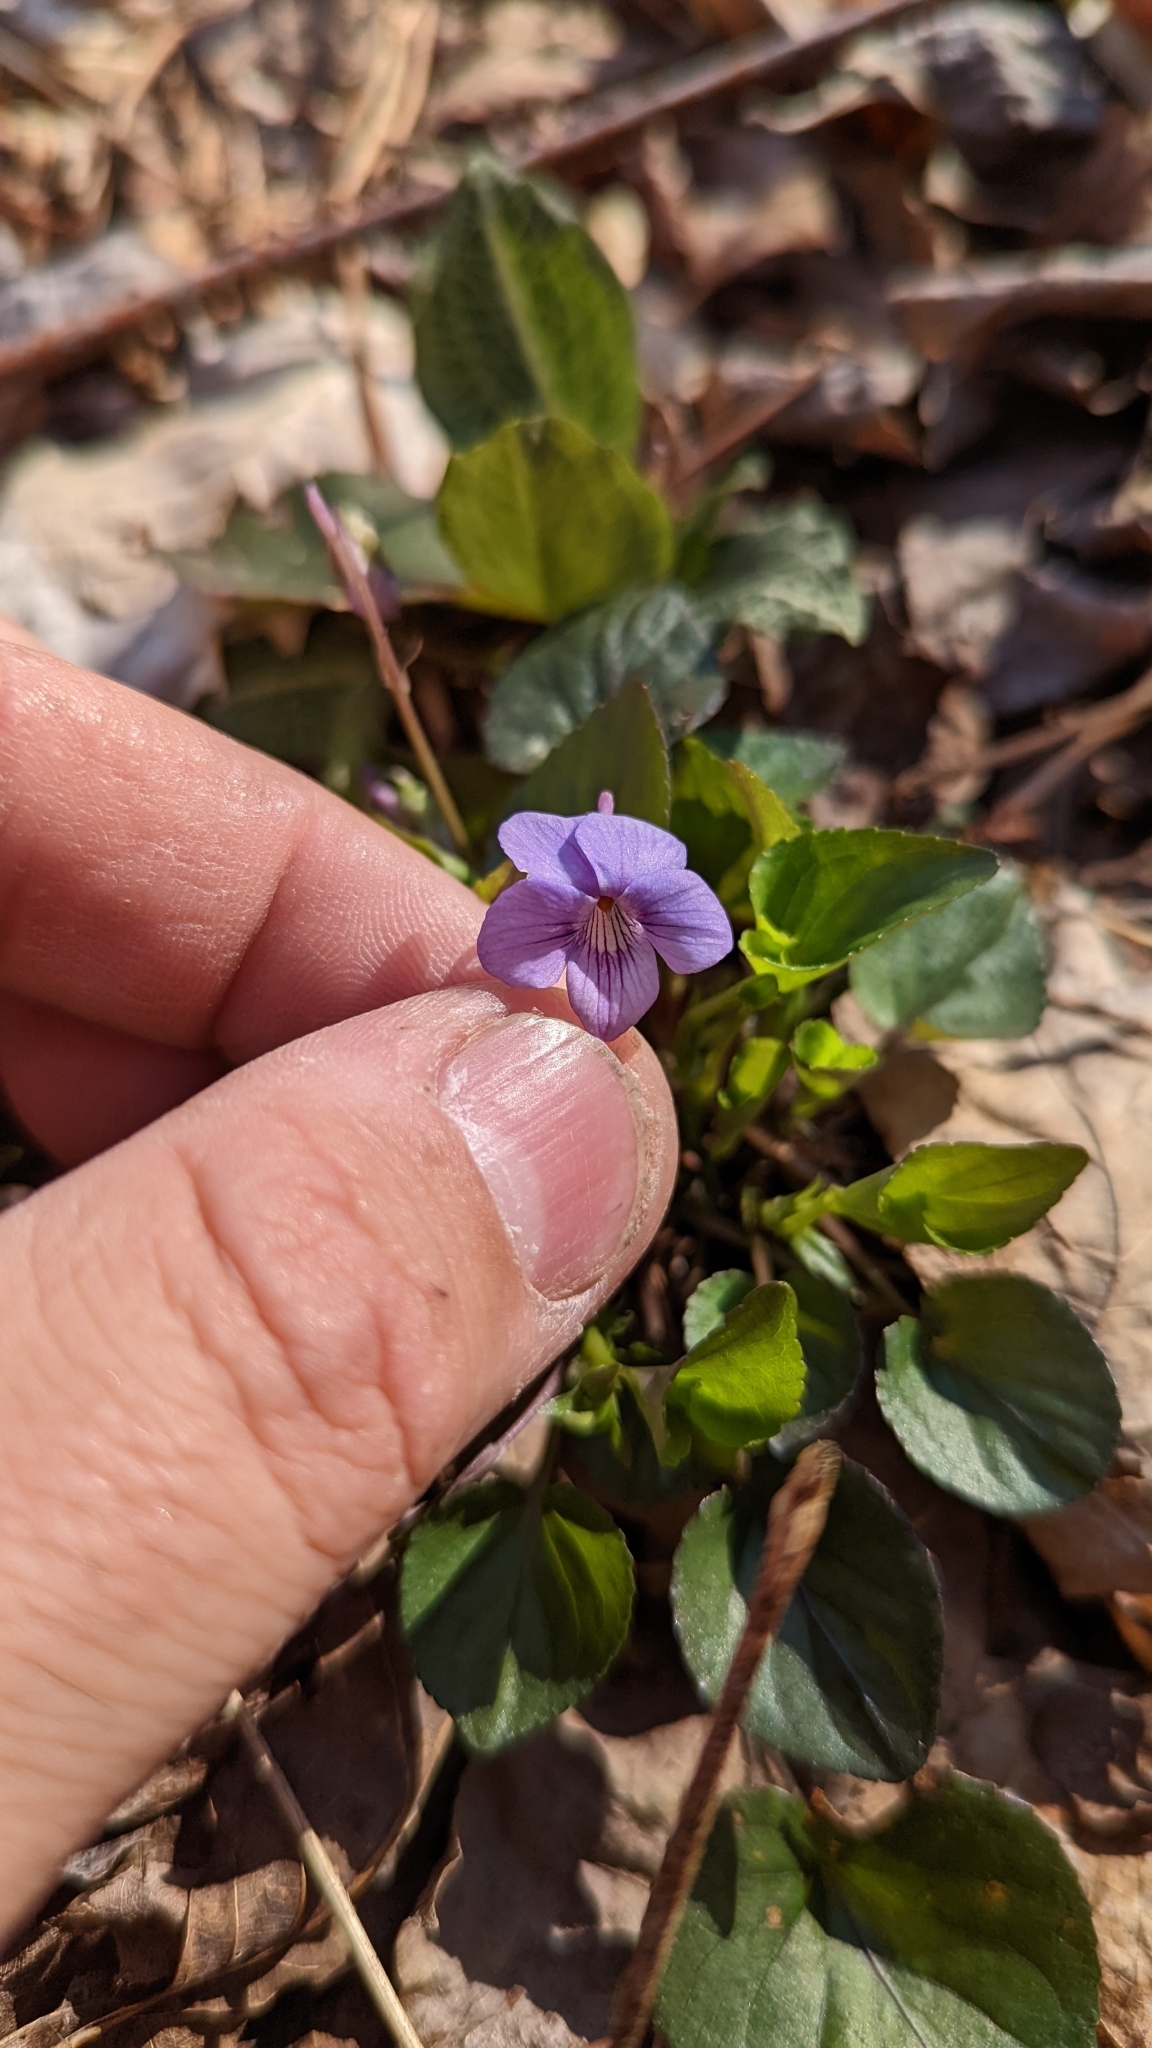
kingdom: Plantae
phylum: Tracheophyta
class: Magnoliopsida
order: Malpighiales
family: Violaceae
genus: Viola
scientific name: Viola rostrata
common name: Long-spur violet
